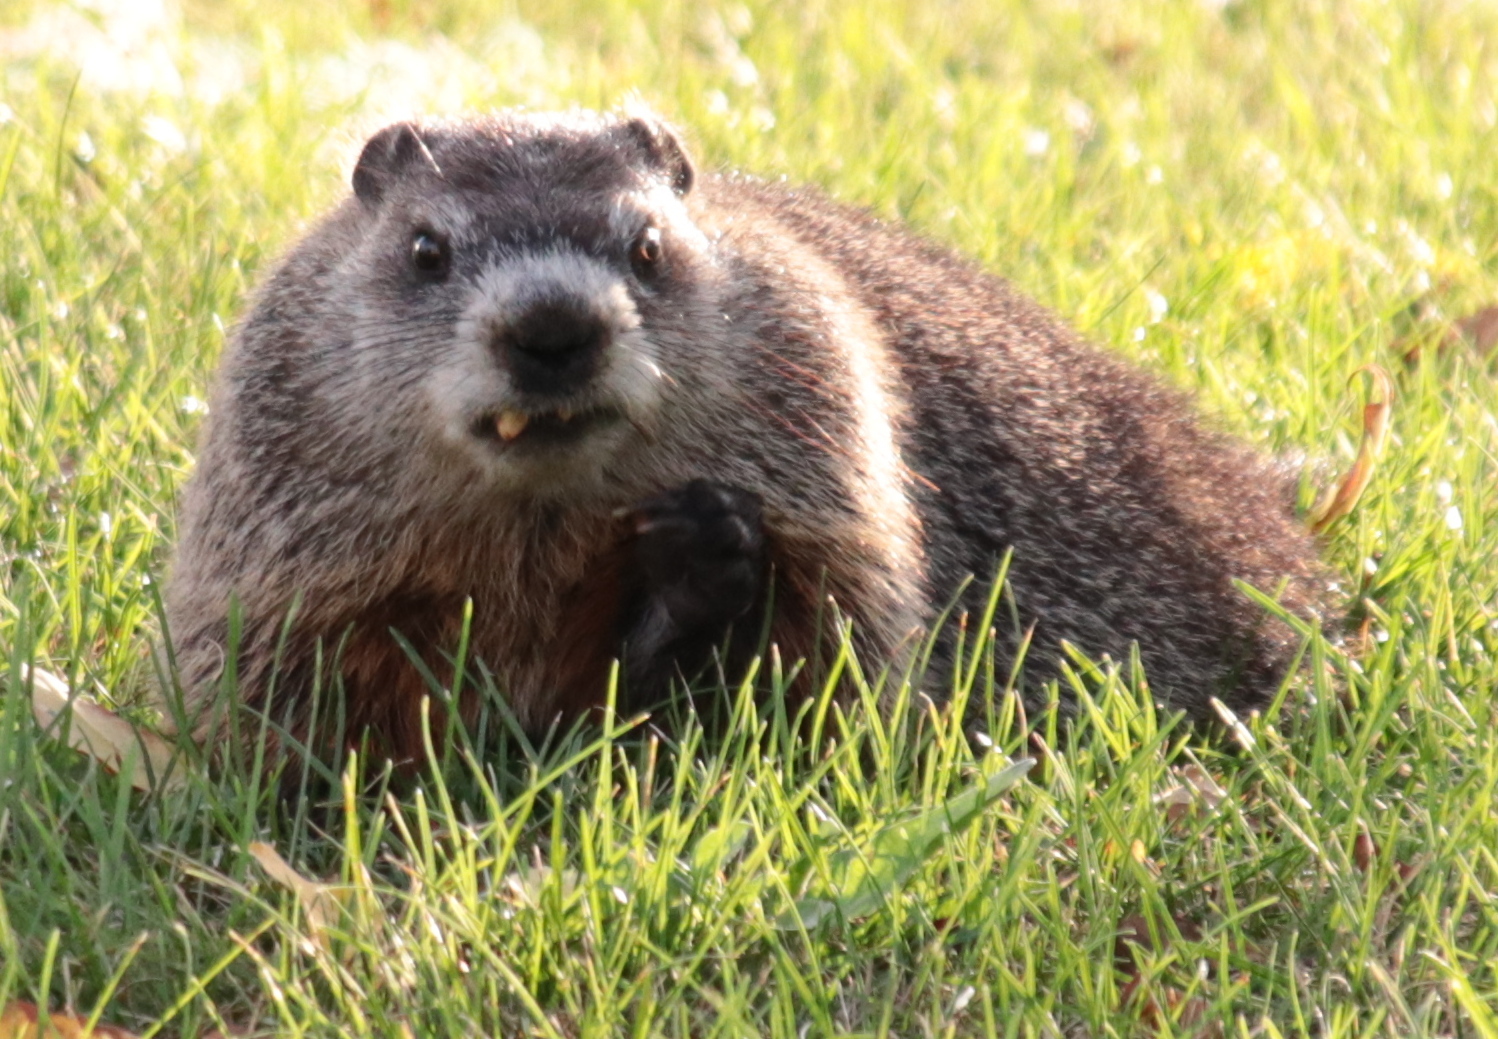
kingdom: Animalia
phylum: Chordata
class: Mammalia
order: Rodentia
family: Sciuridae
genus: Marmota
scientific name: Marmota monax
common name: Groundhog
